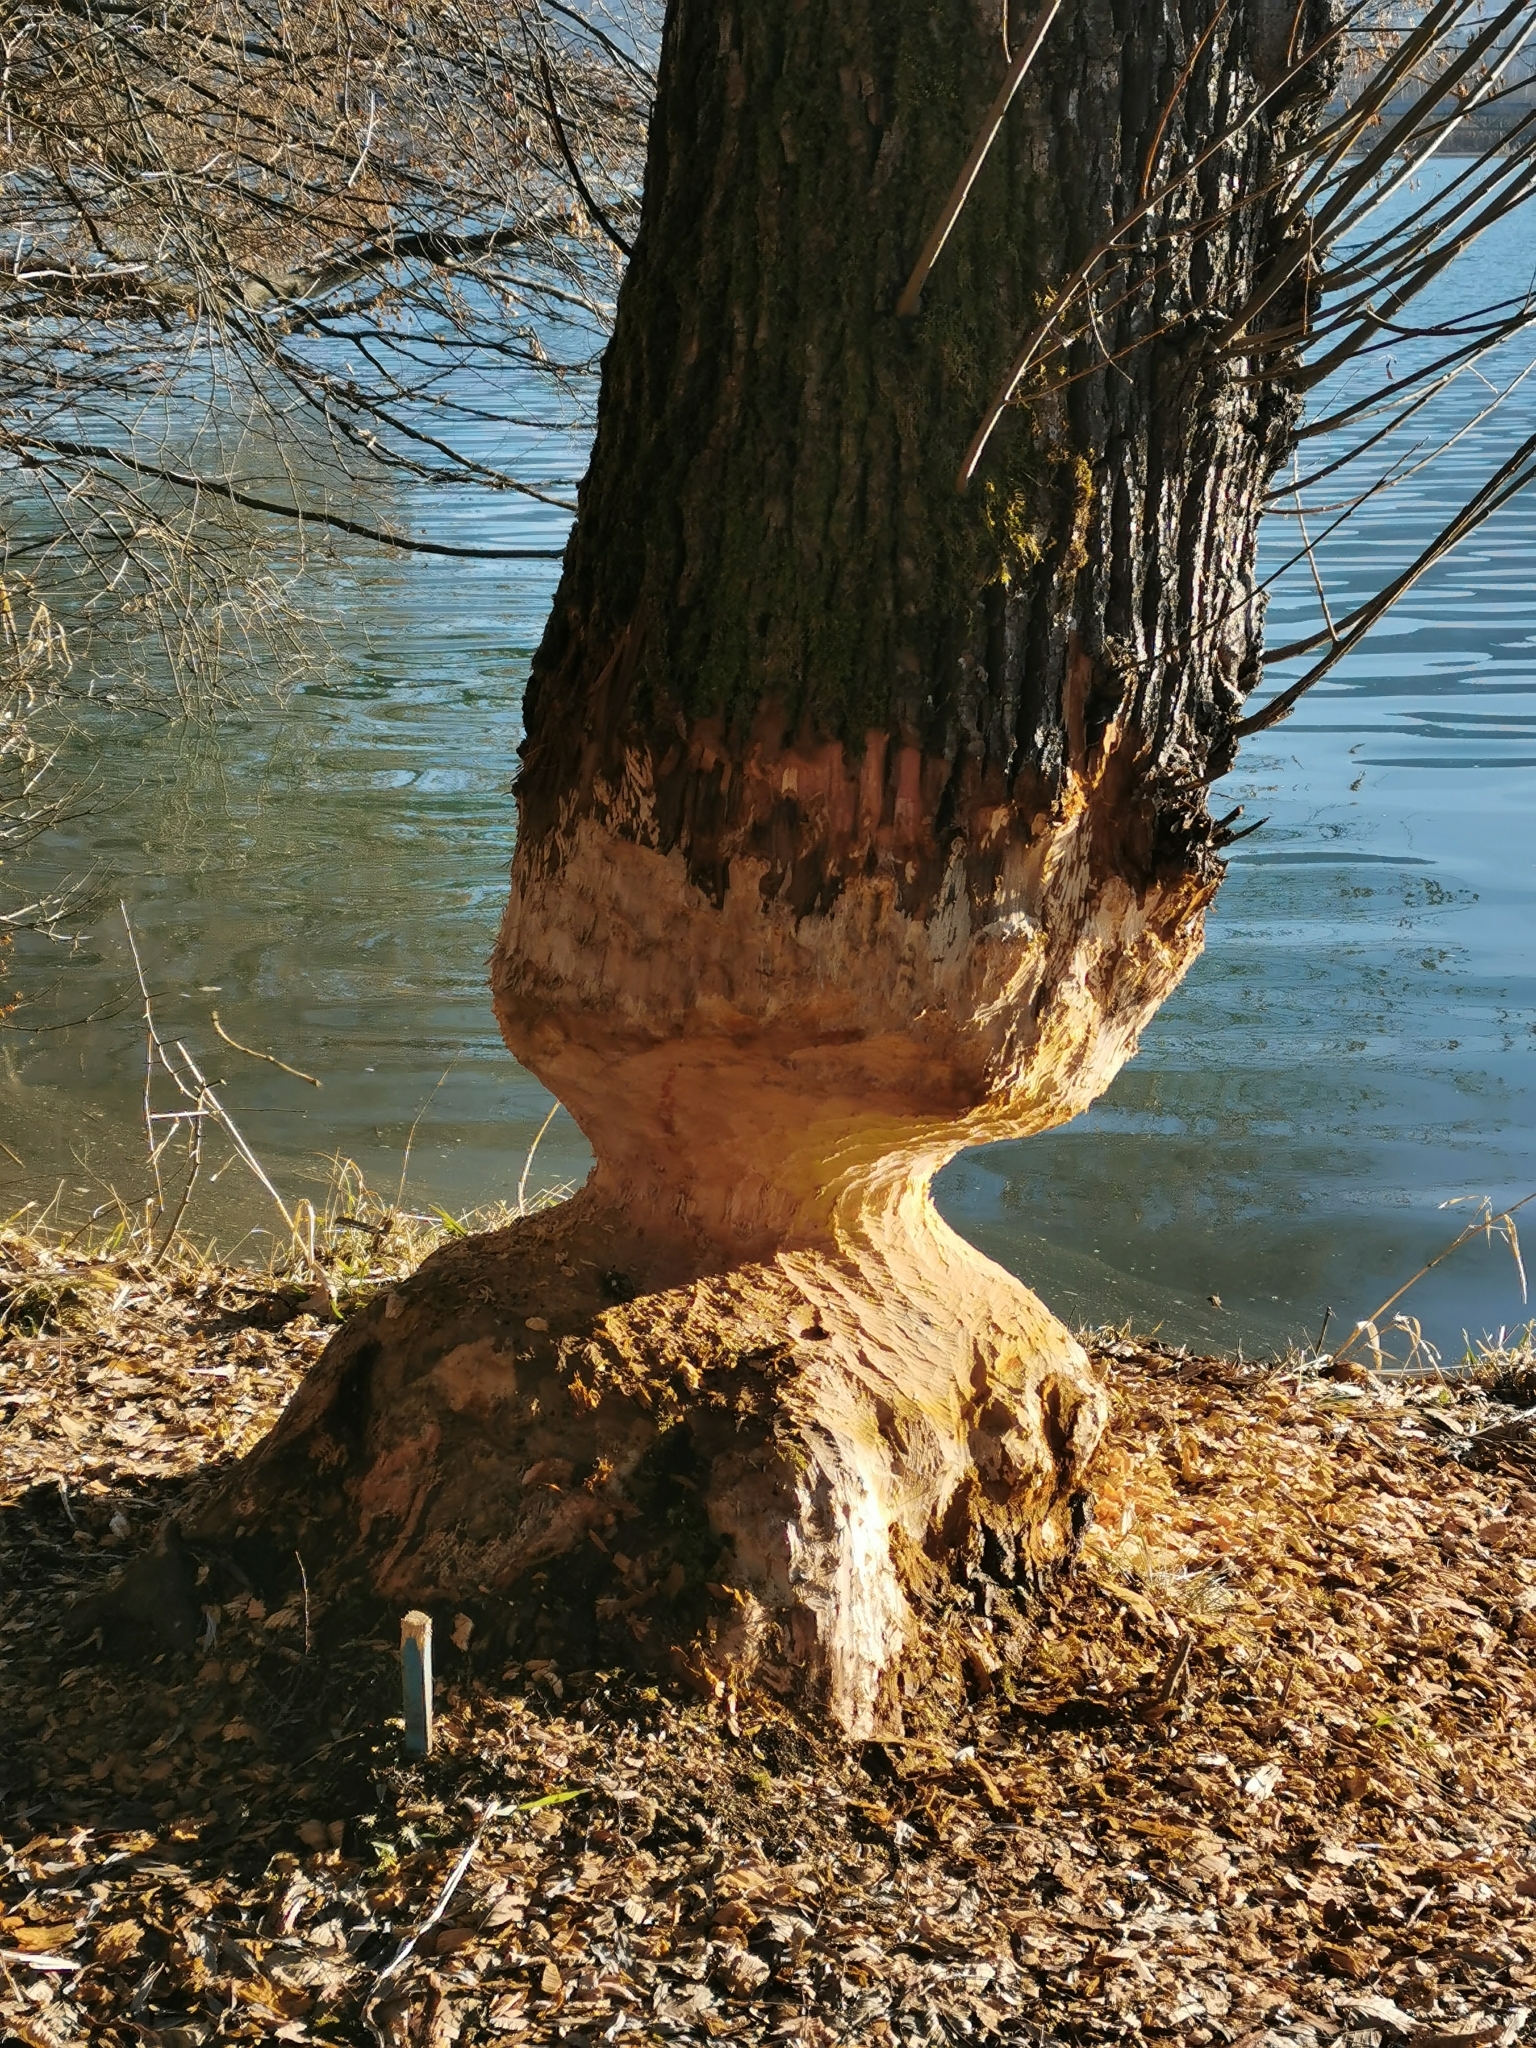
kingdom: Animalia
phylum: Chordata
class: Mammalia
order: Rodentia
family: Castoridae
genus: Castor
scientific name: Castor fiber
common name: Eurasian beaver
